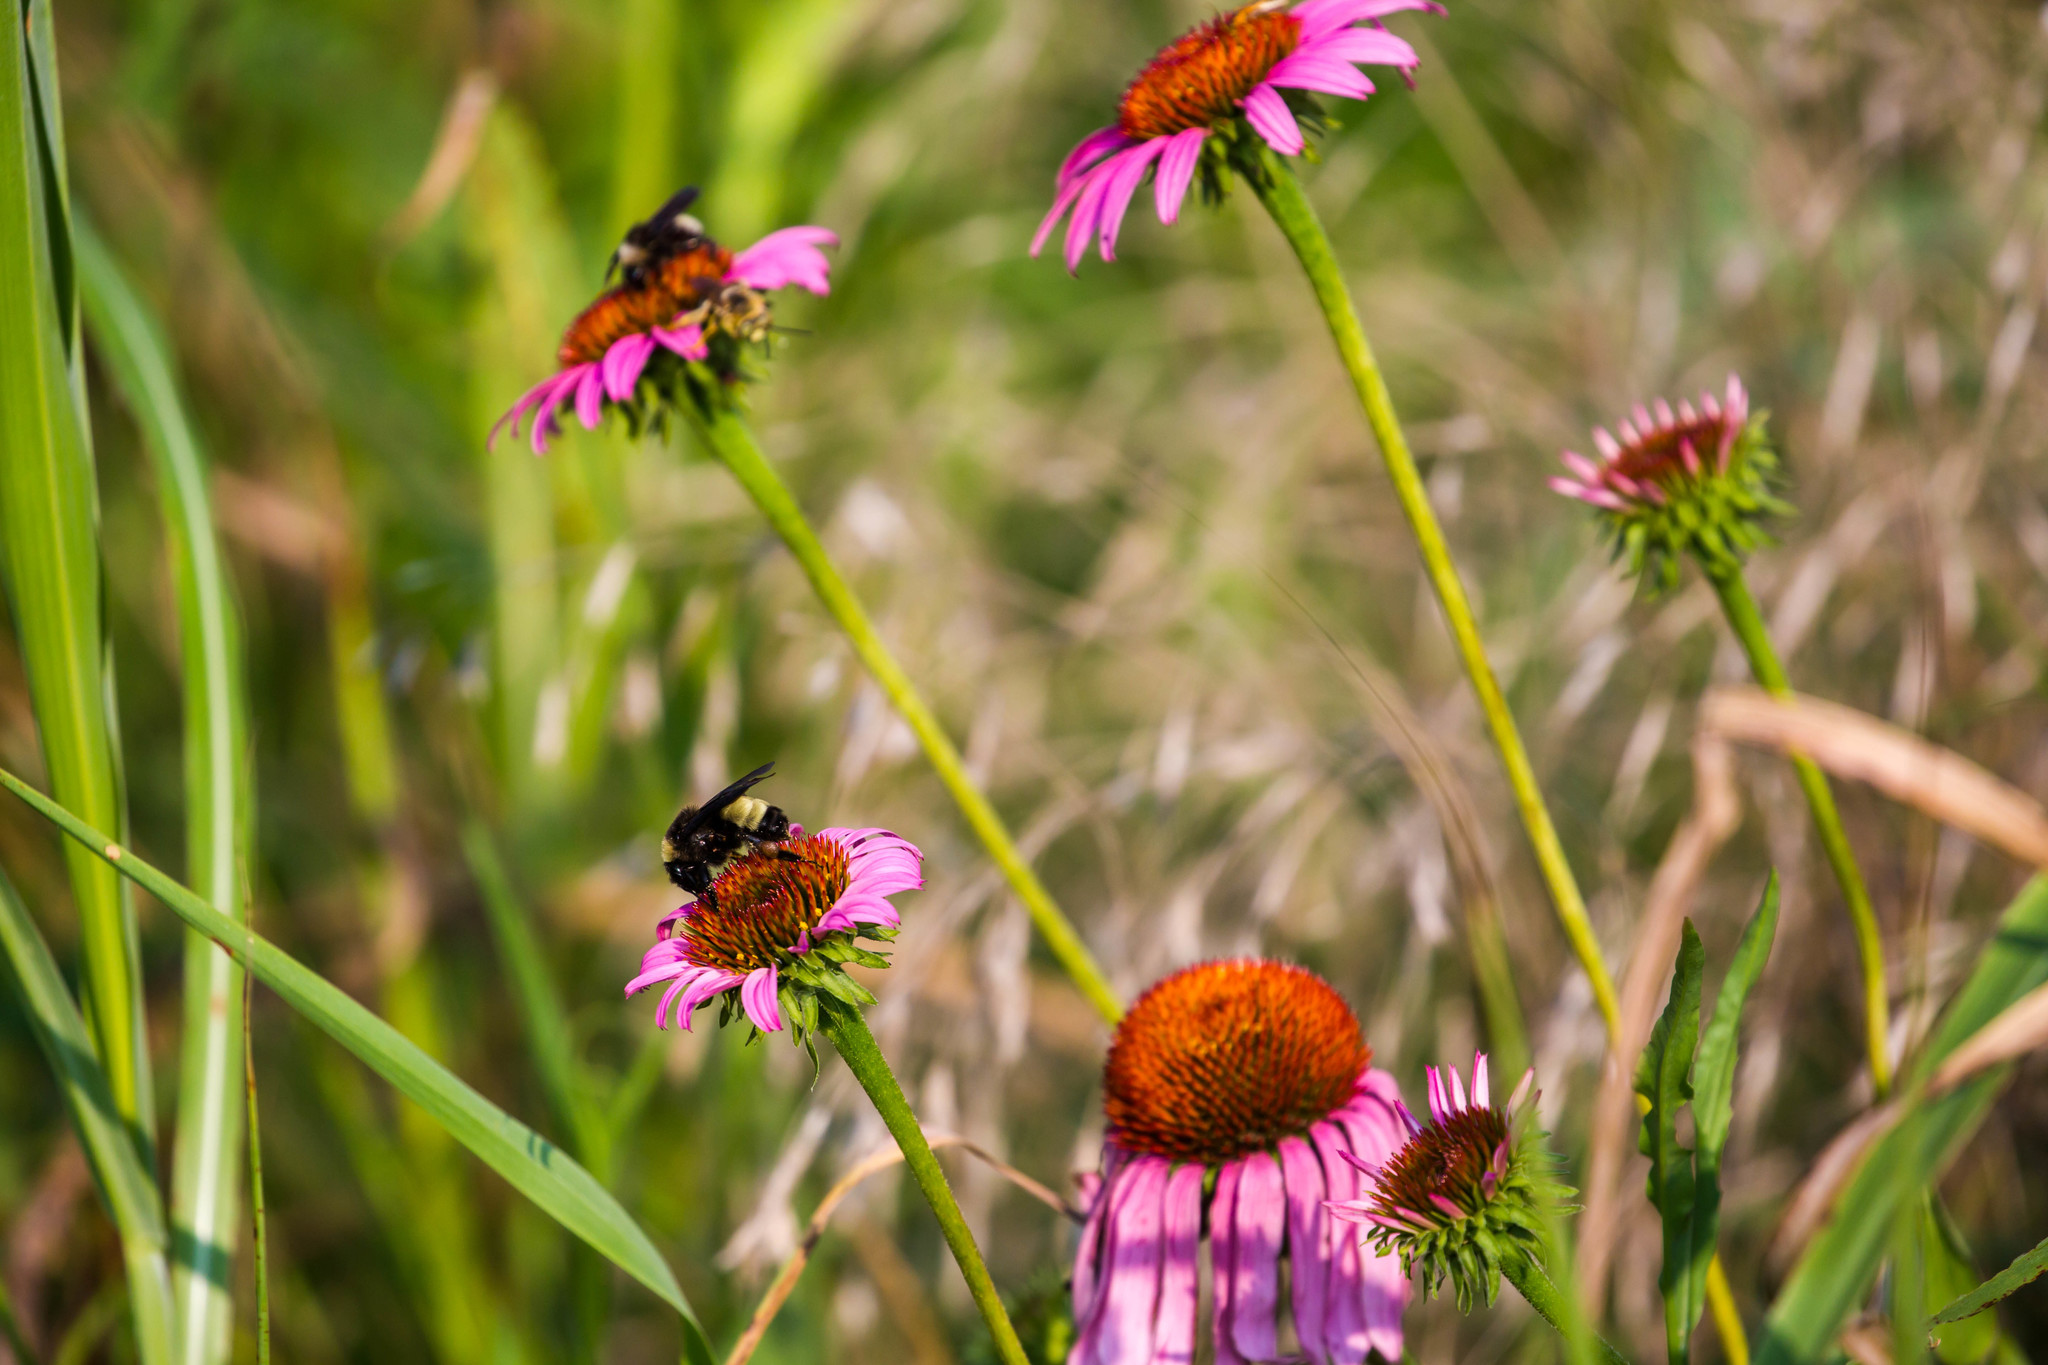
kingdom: Animalia
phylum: Arthropoda
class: Insecta
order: Hymenoptera
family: Apidae
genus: Bombus
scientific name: Bombus pensylvanicus
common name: Bumble bee
